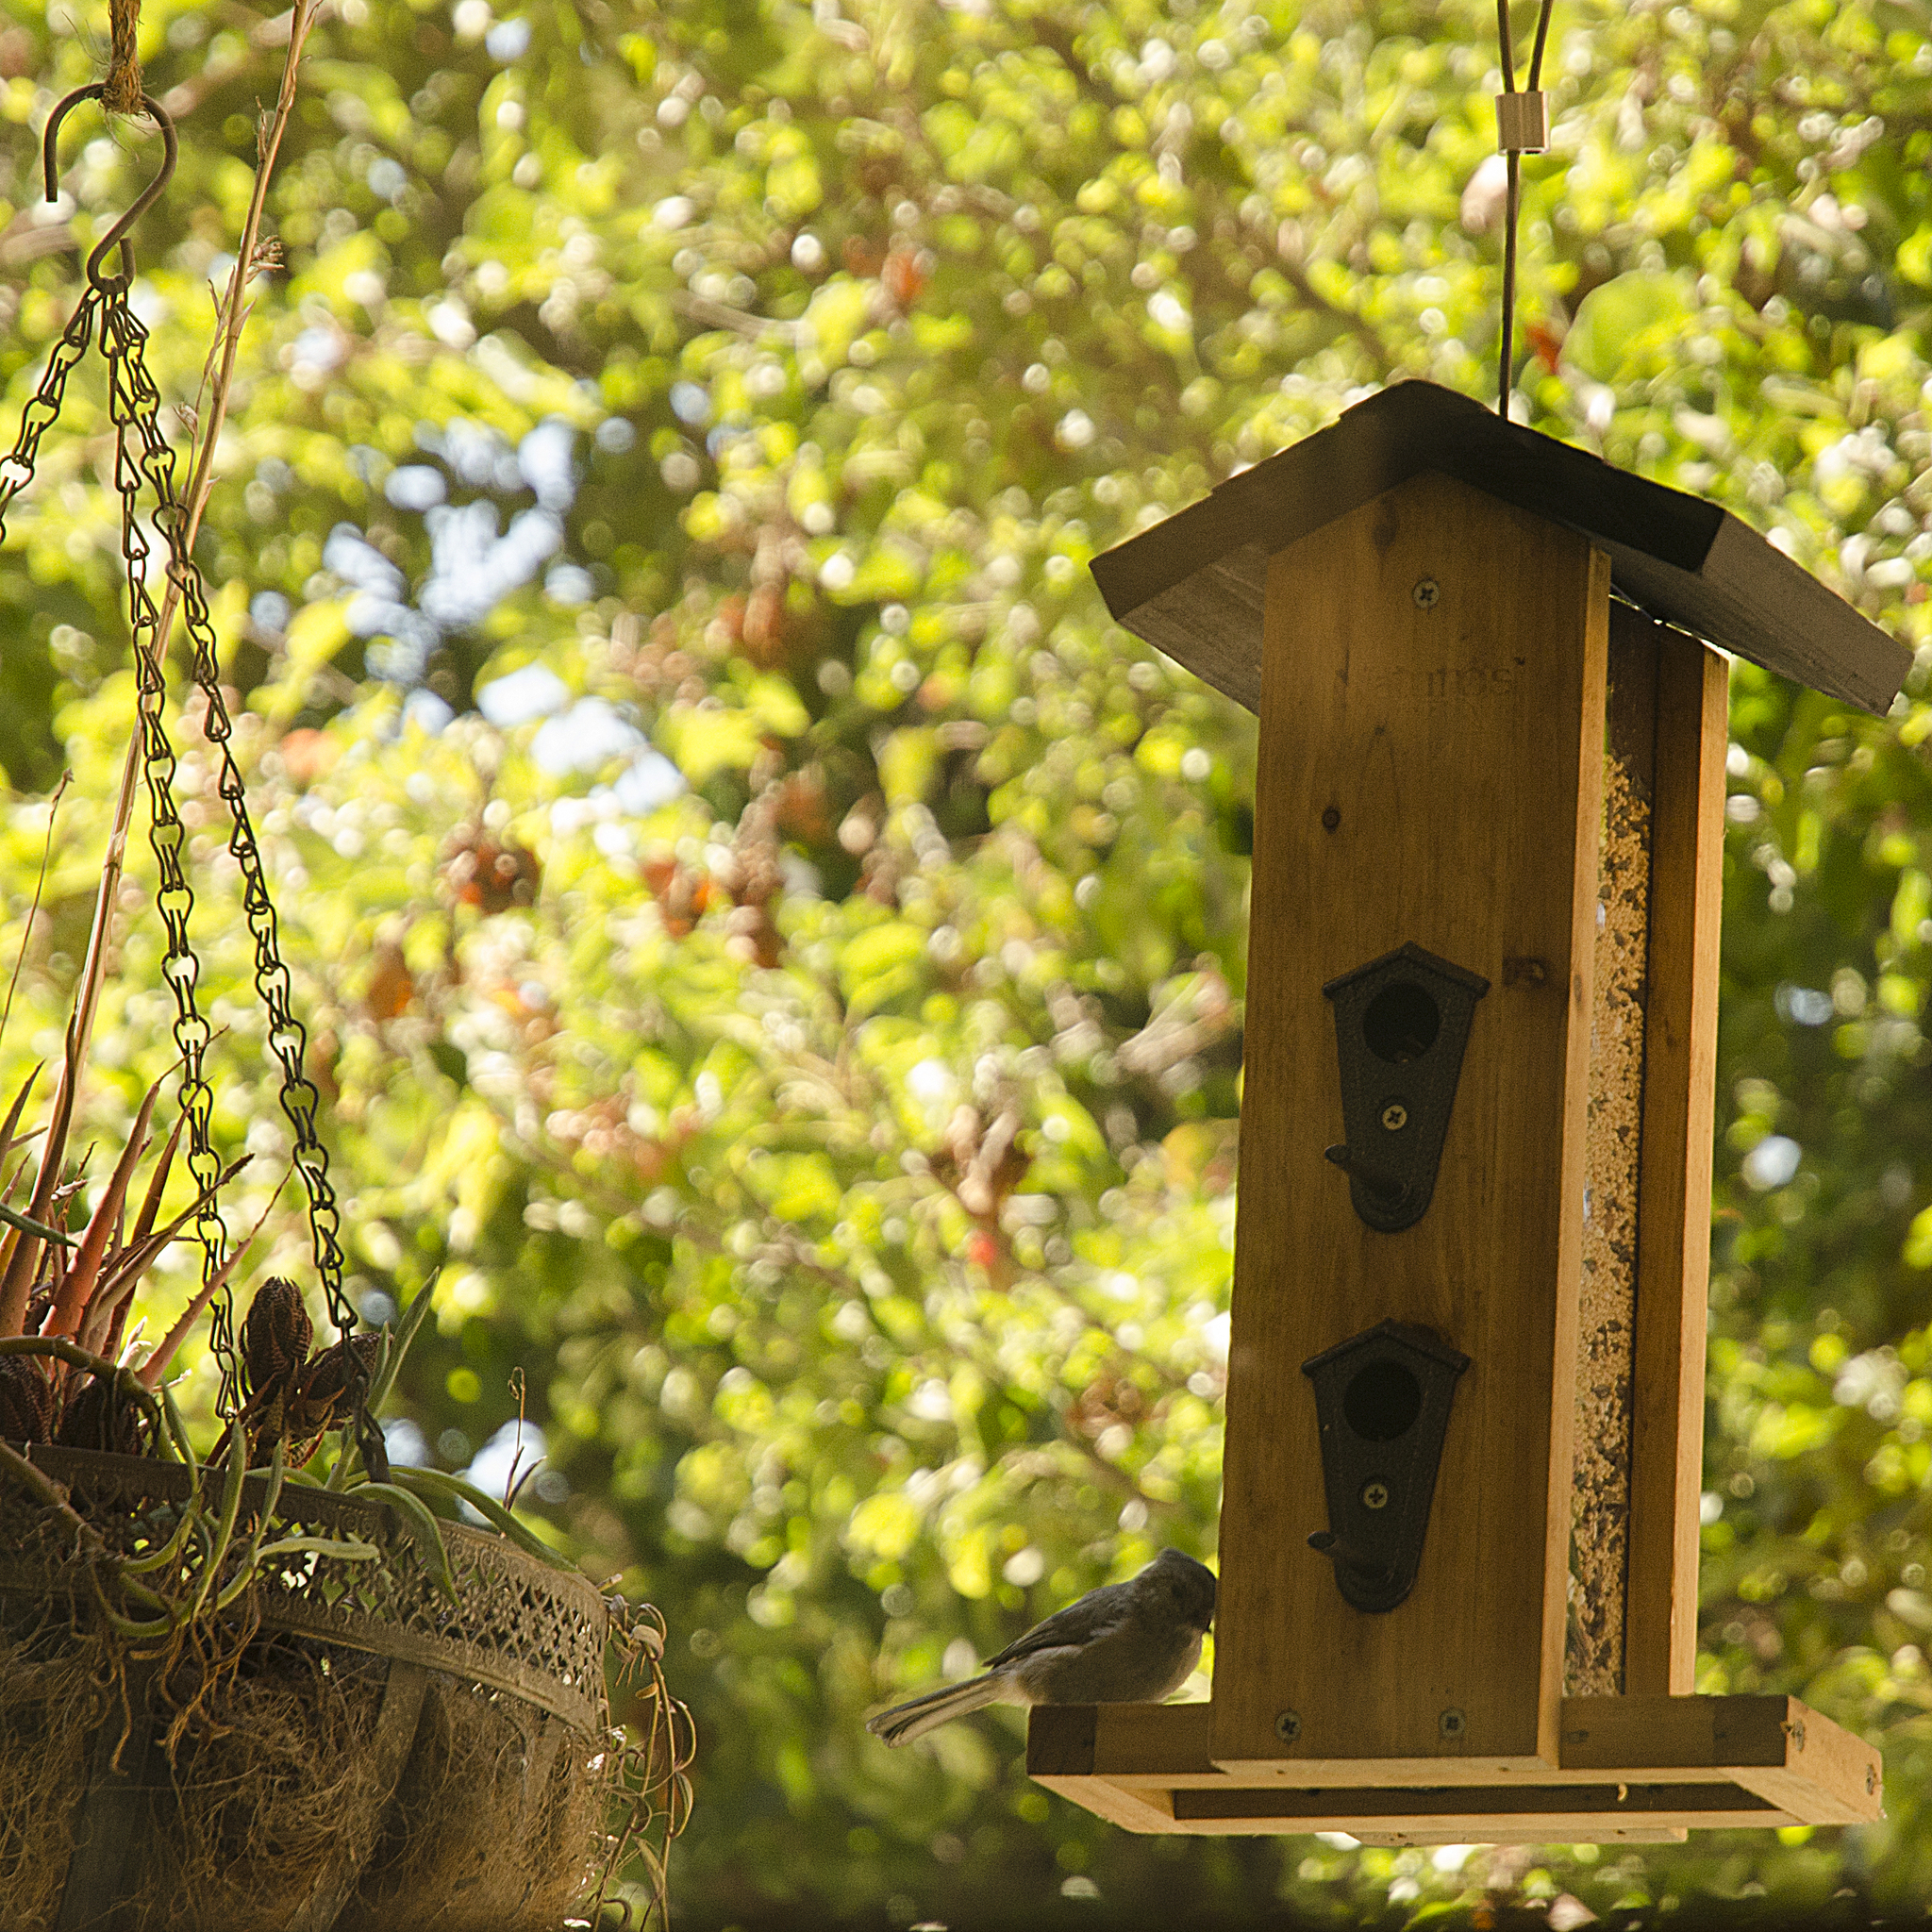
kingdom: Animalia
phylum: Chordata
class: Aves
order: Passeriformes
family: Paridae
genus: Baeolophus
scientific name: Baeolophus inornatus
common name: Oak titmouse
